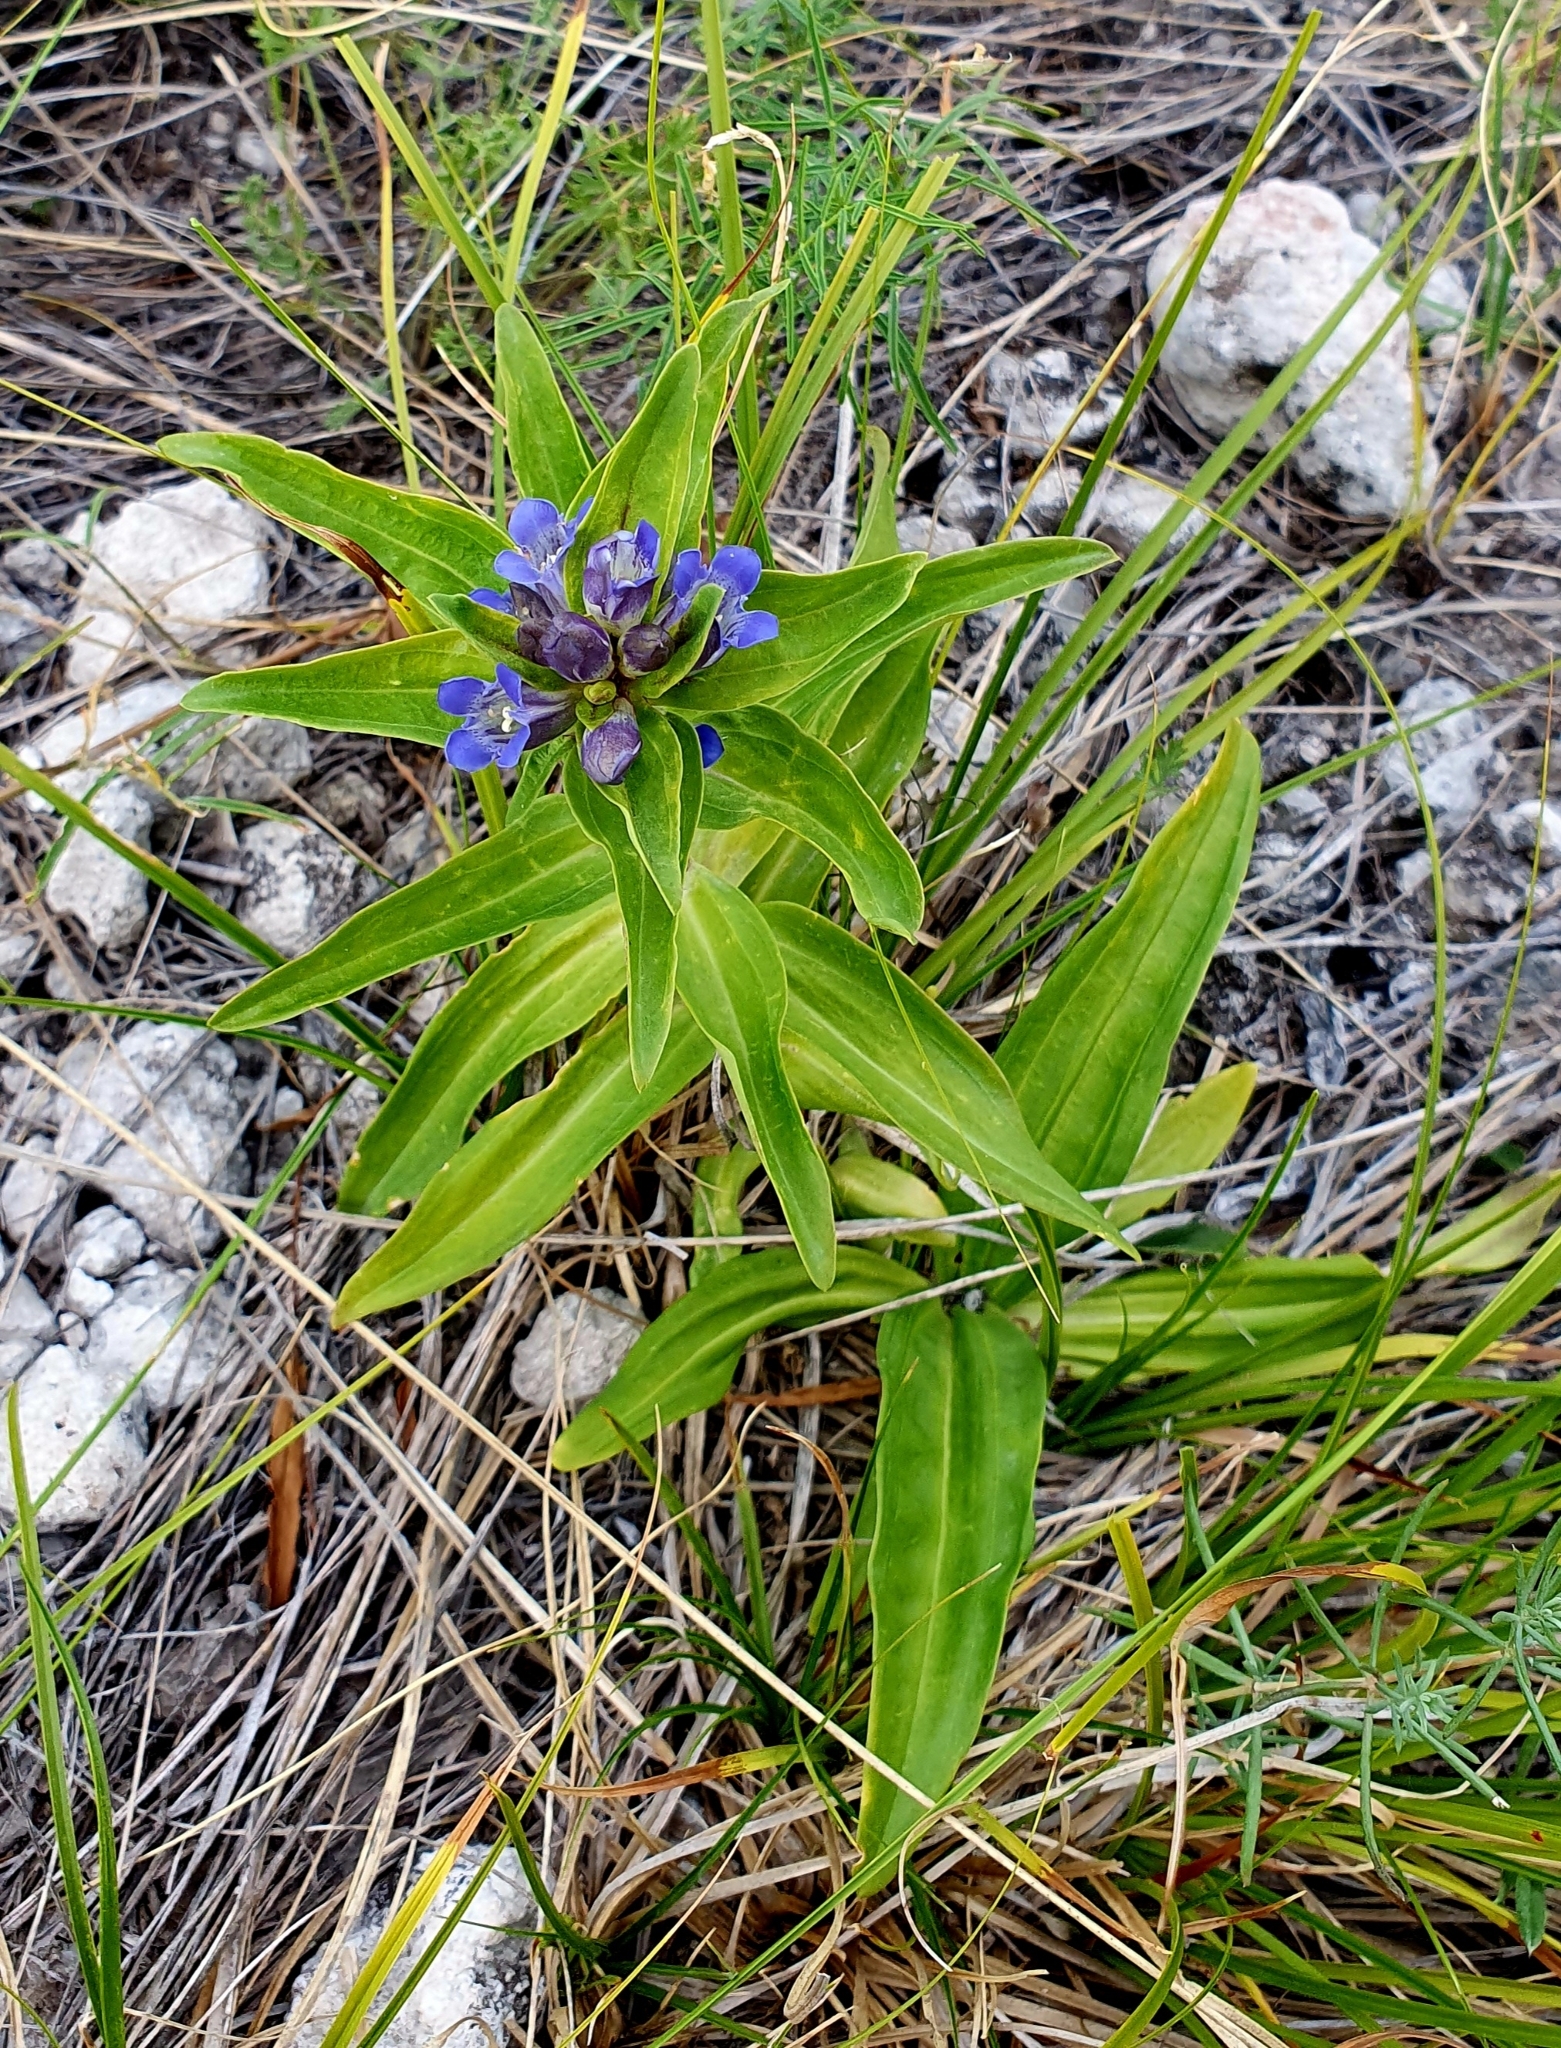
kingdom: Plantae
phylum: Tracheophyta
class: Magnoliopsida
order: Gentianales
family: Gentianaceae
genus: Gentiana
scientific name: Gentiana cruciata
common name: Cross gentian
